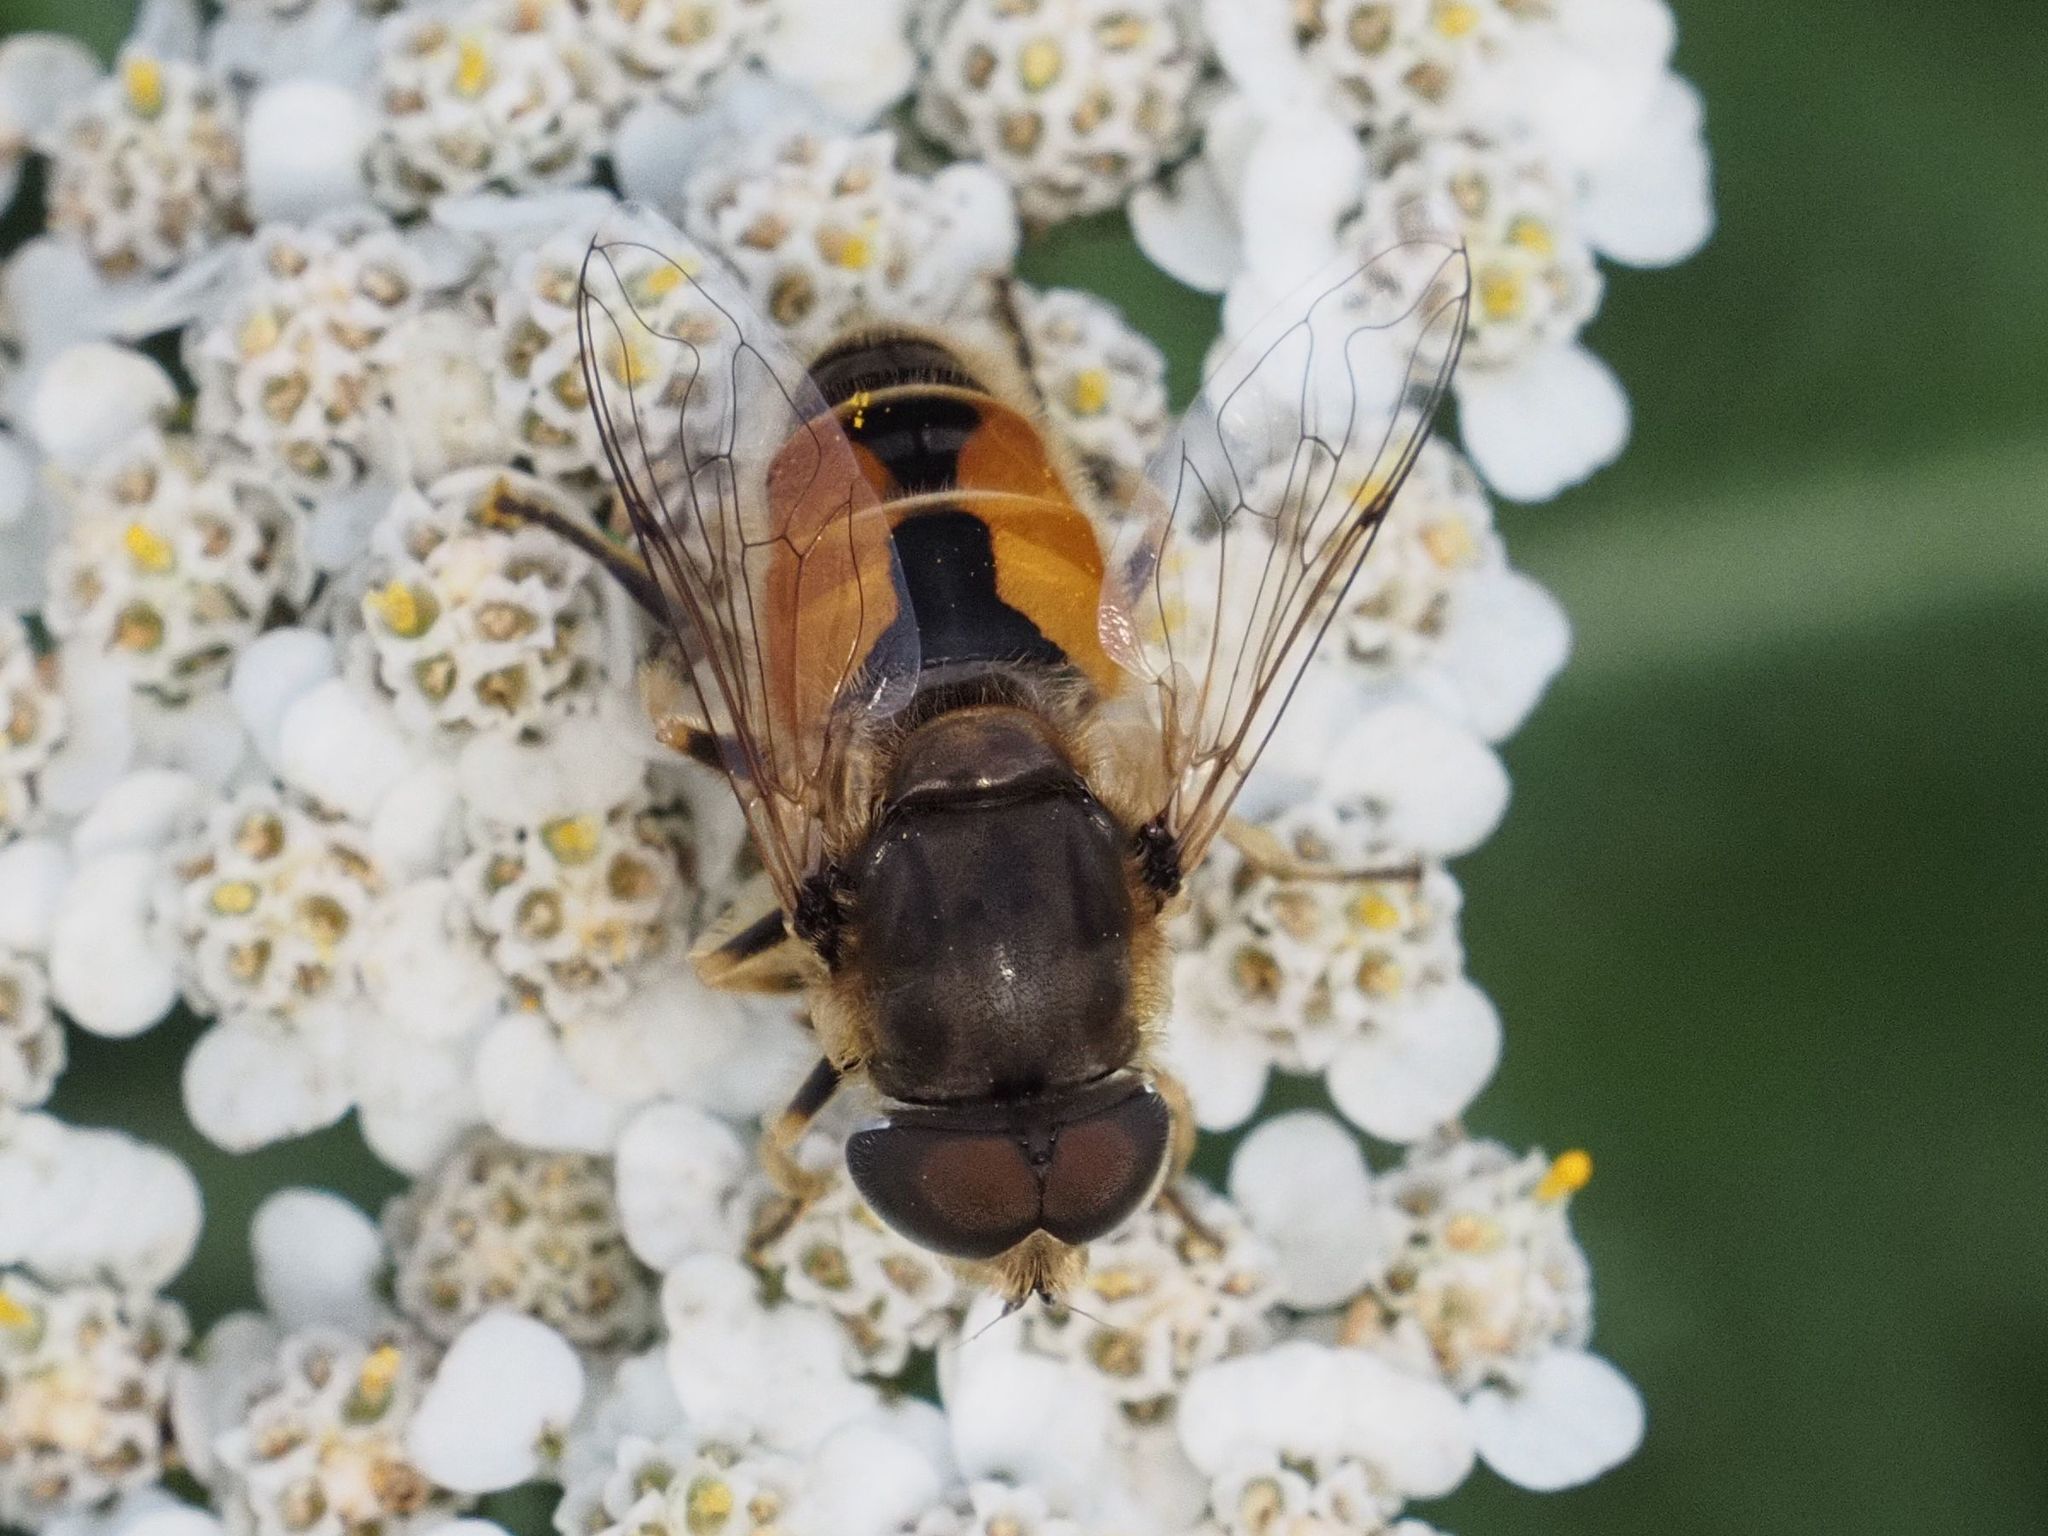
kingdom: Animalia
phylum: Arthropoda
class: Insecta
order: Diptera
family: Syrphidae
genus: Eristalis
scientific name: Eristalis arbustorum
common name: Hover fly
